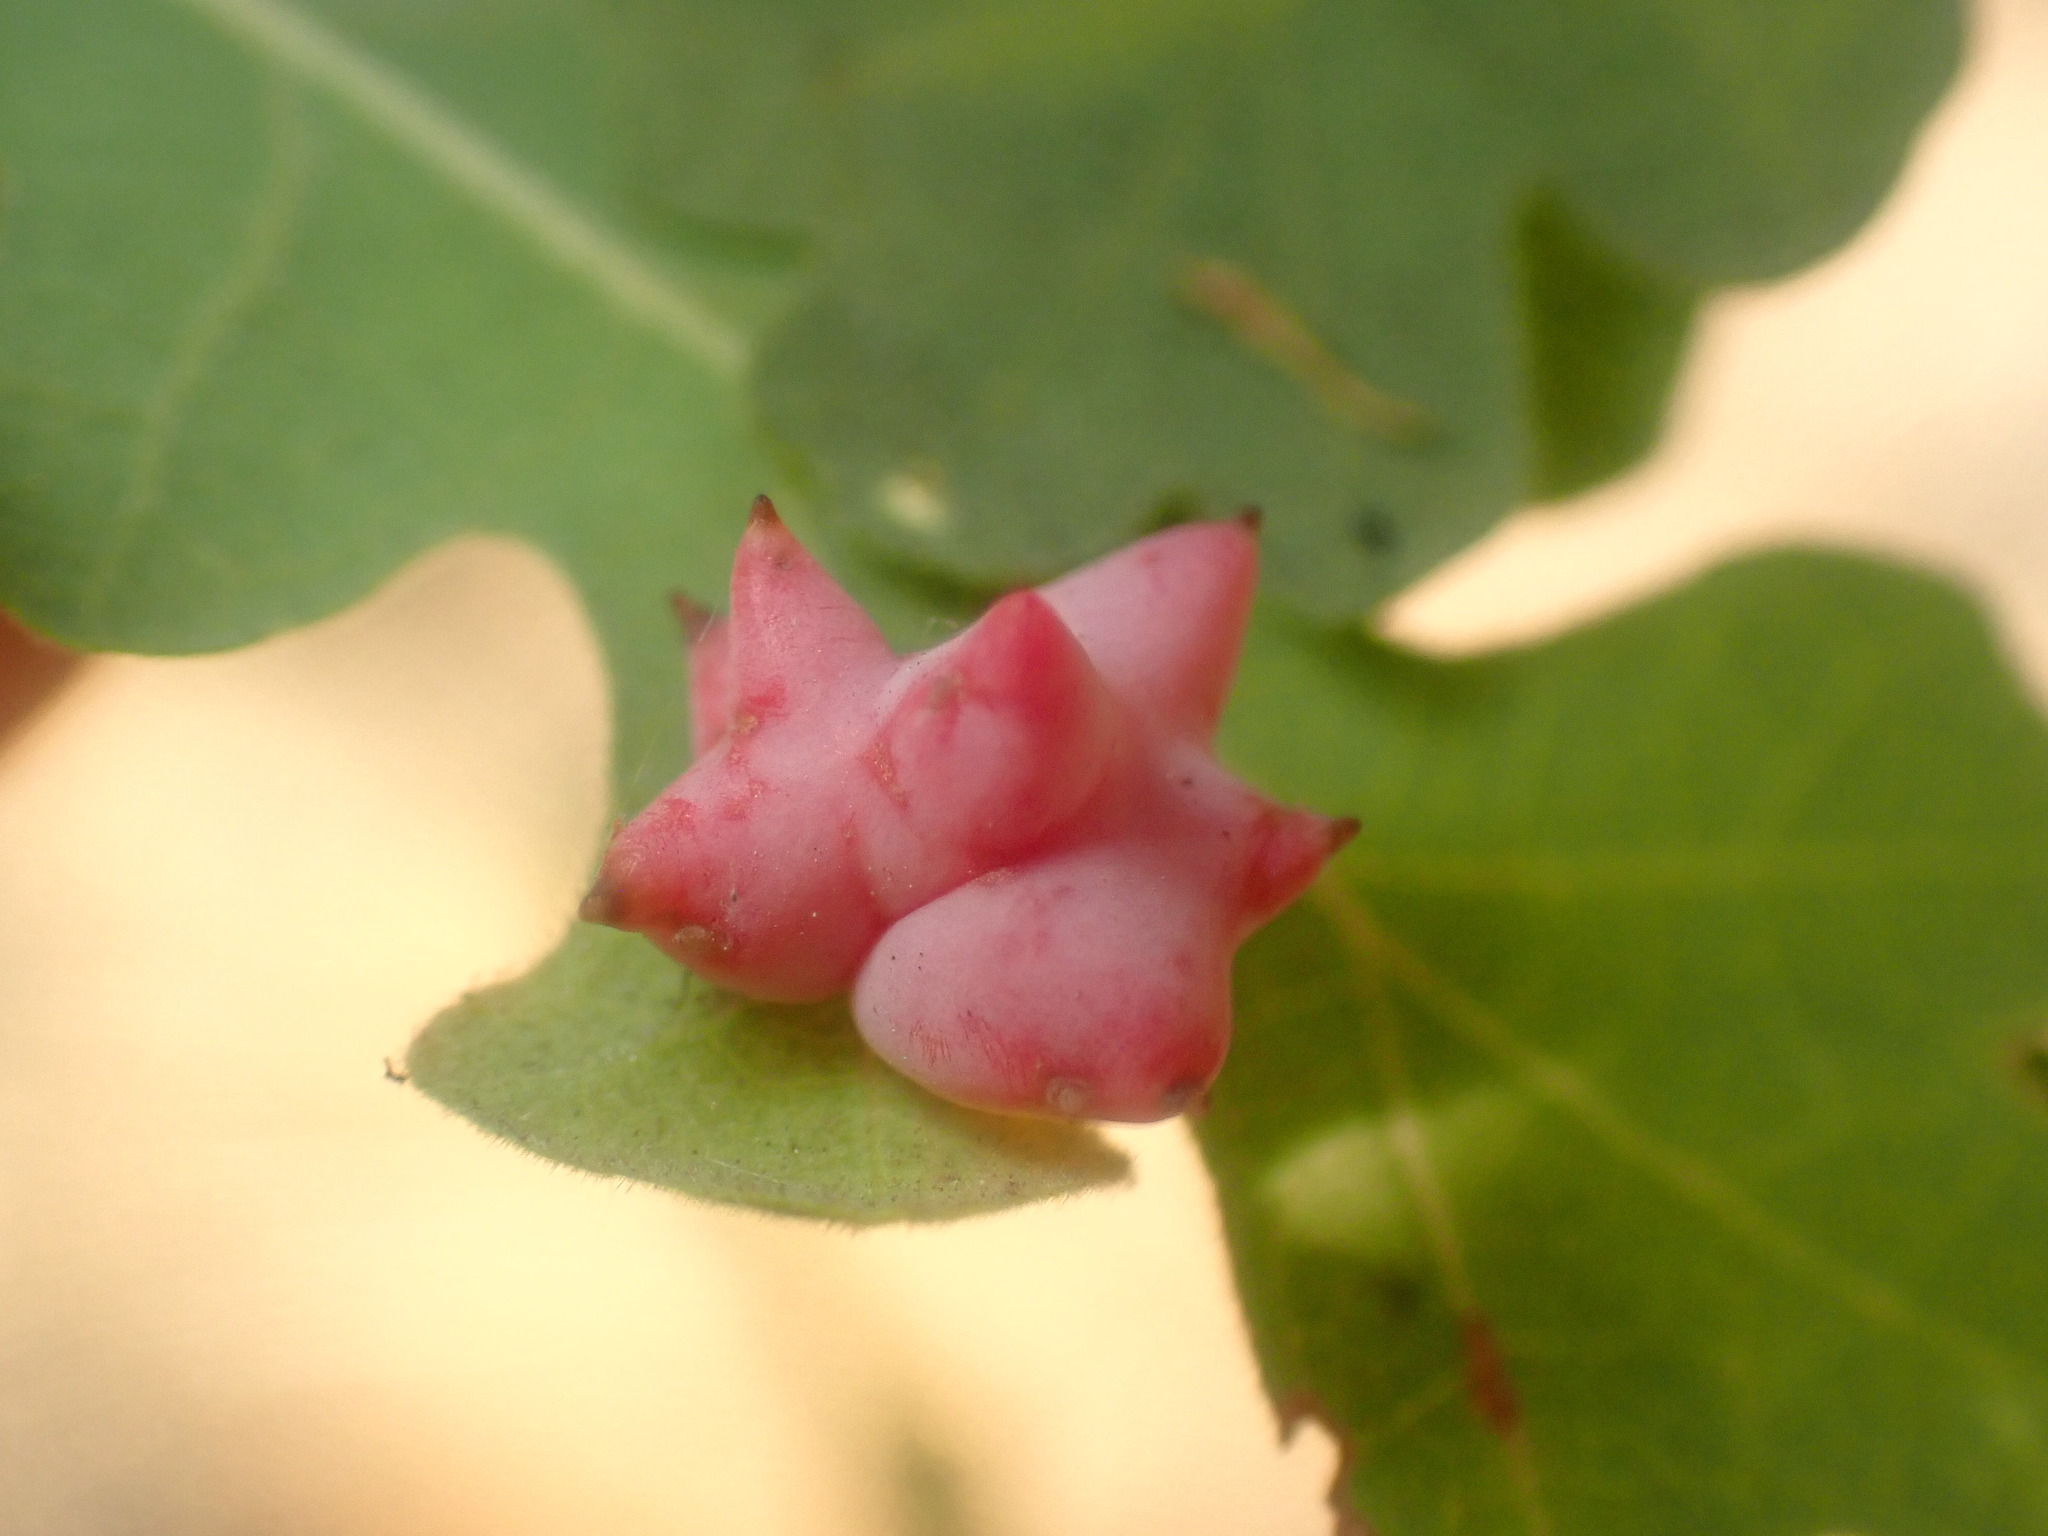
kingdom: Animalia
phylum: Arthropoda
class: Insecta
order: Hymenoptera
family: Cynipidae
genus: Cynips
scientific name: Cynips douglasi
